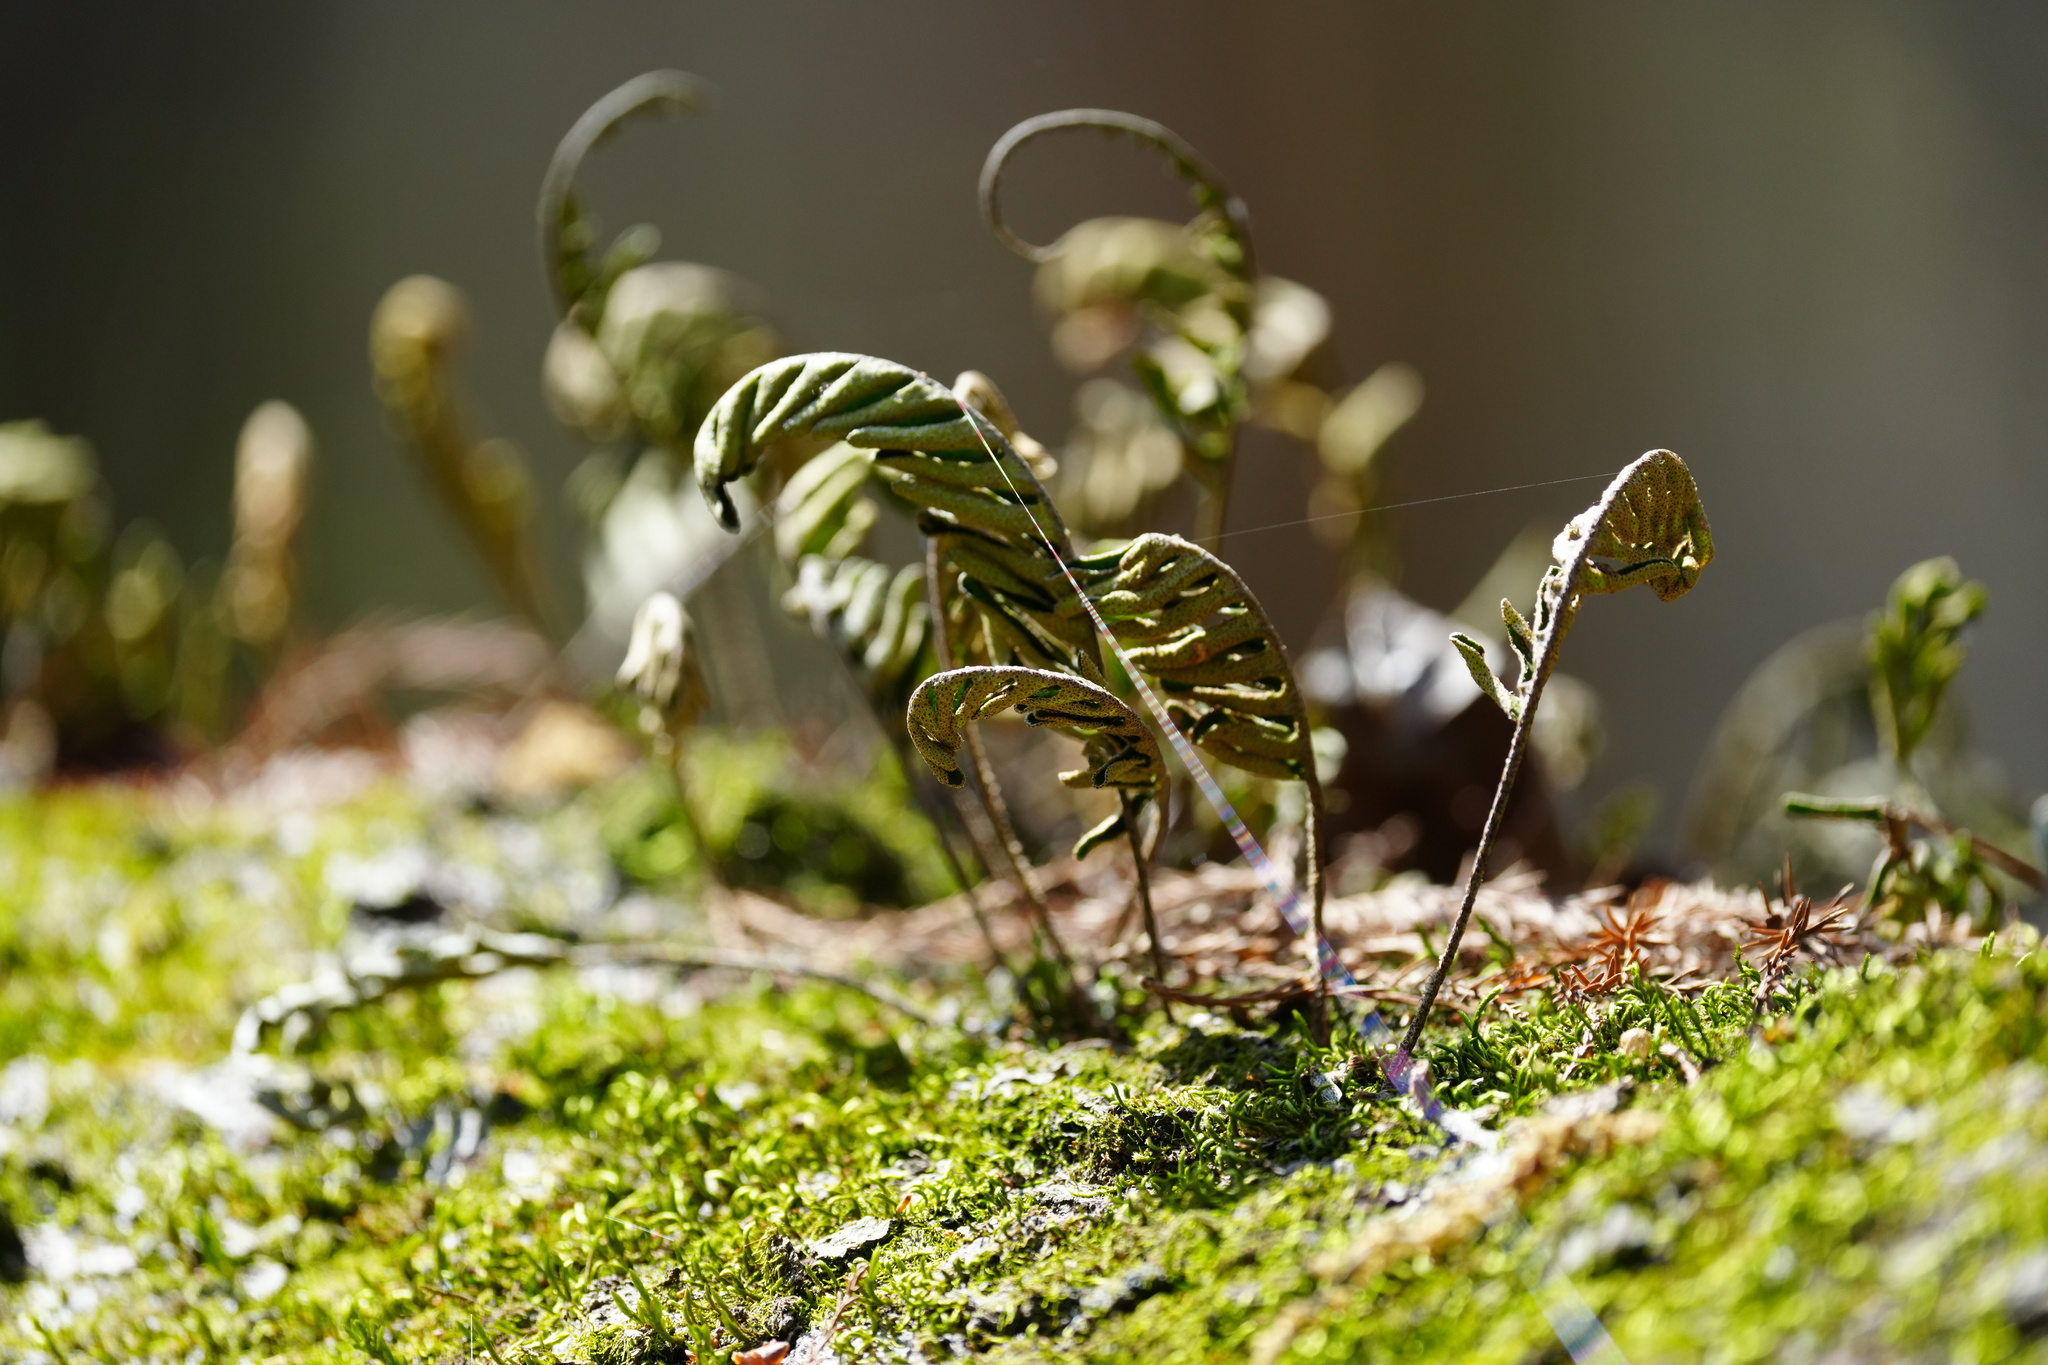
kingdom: Plantae
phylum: Tracheophyta
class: Polypodiopsida
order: Polypodiales
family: Polypodiaceae
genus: Pleopeltis
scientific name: Pleopeltis michauxiana
